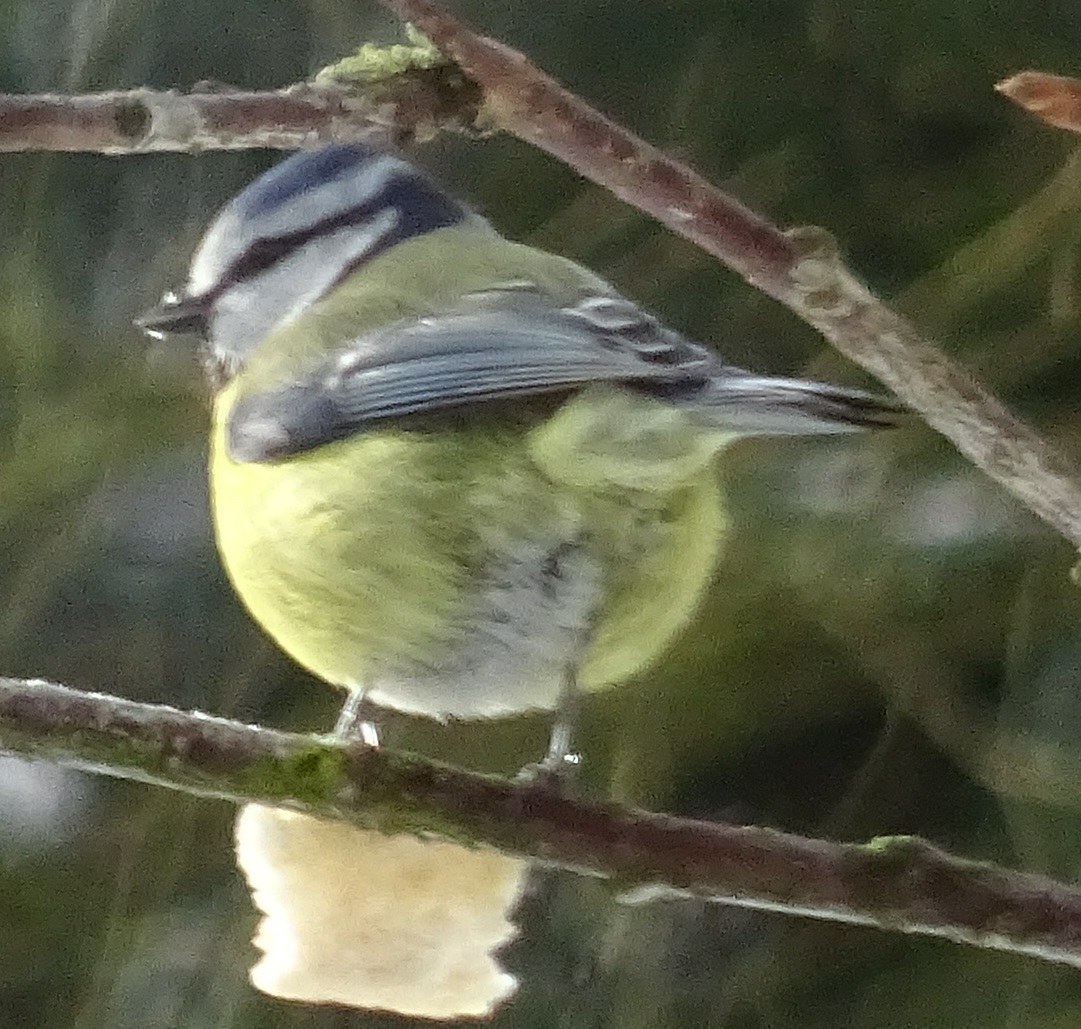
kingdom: Animalia
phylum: Chordata
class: Aves
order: Passeriformes
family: Paridae
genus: Cyanistes
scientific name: Cyanistes caeruleus
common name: Eurasian blue tit
